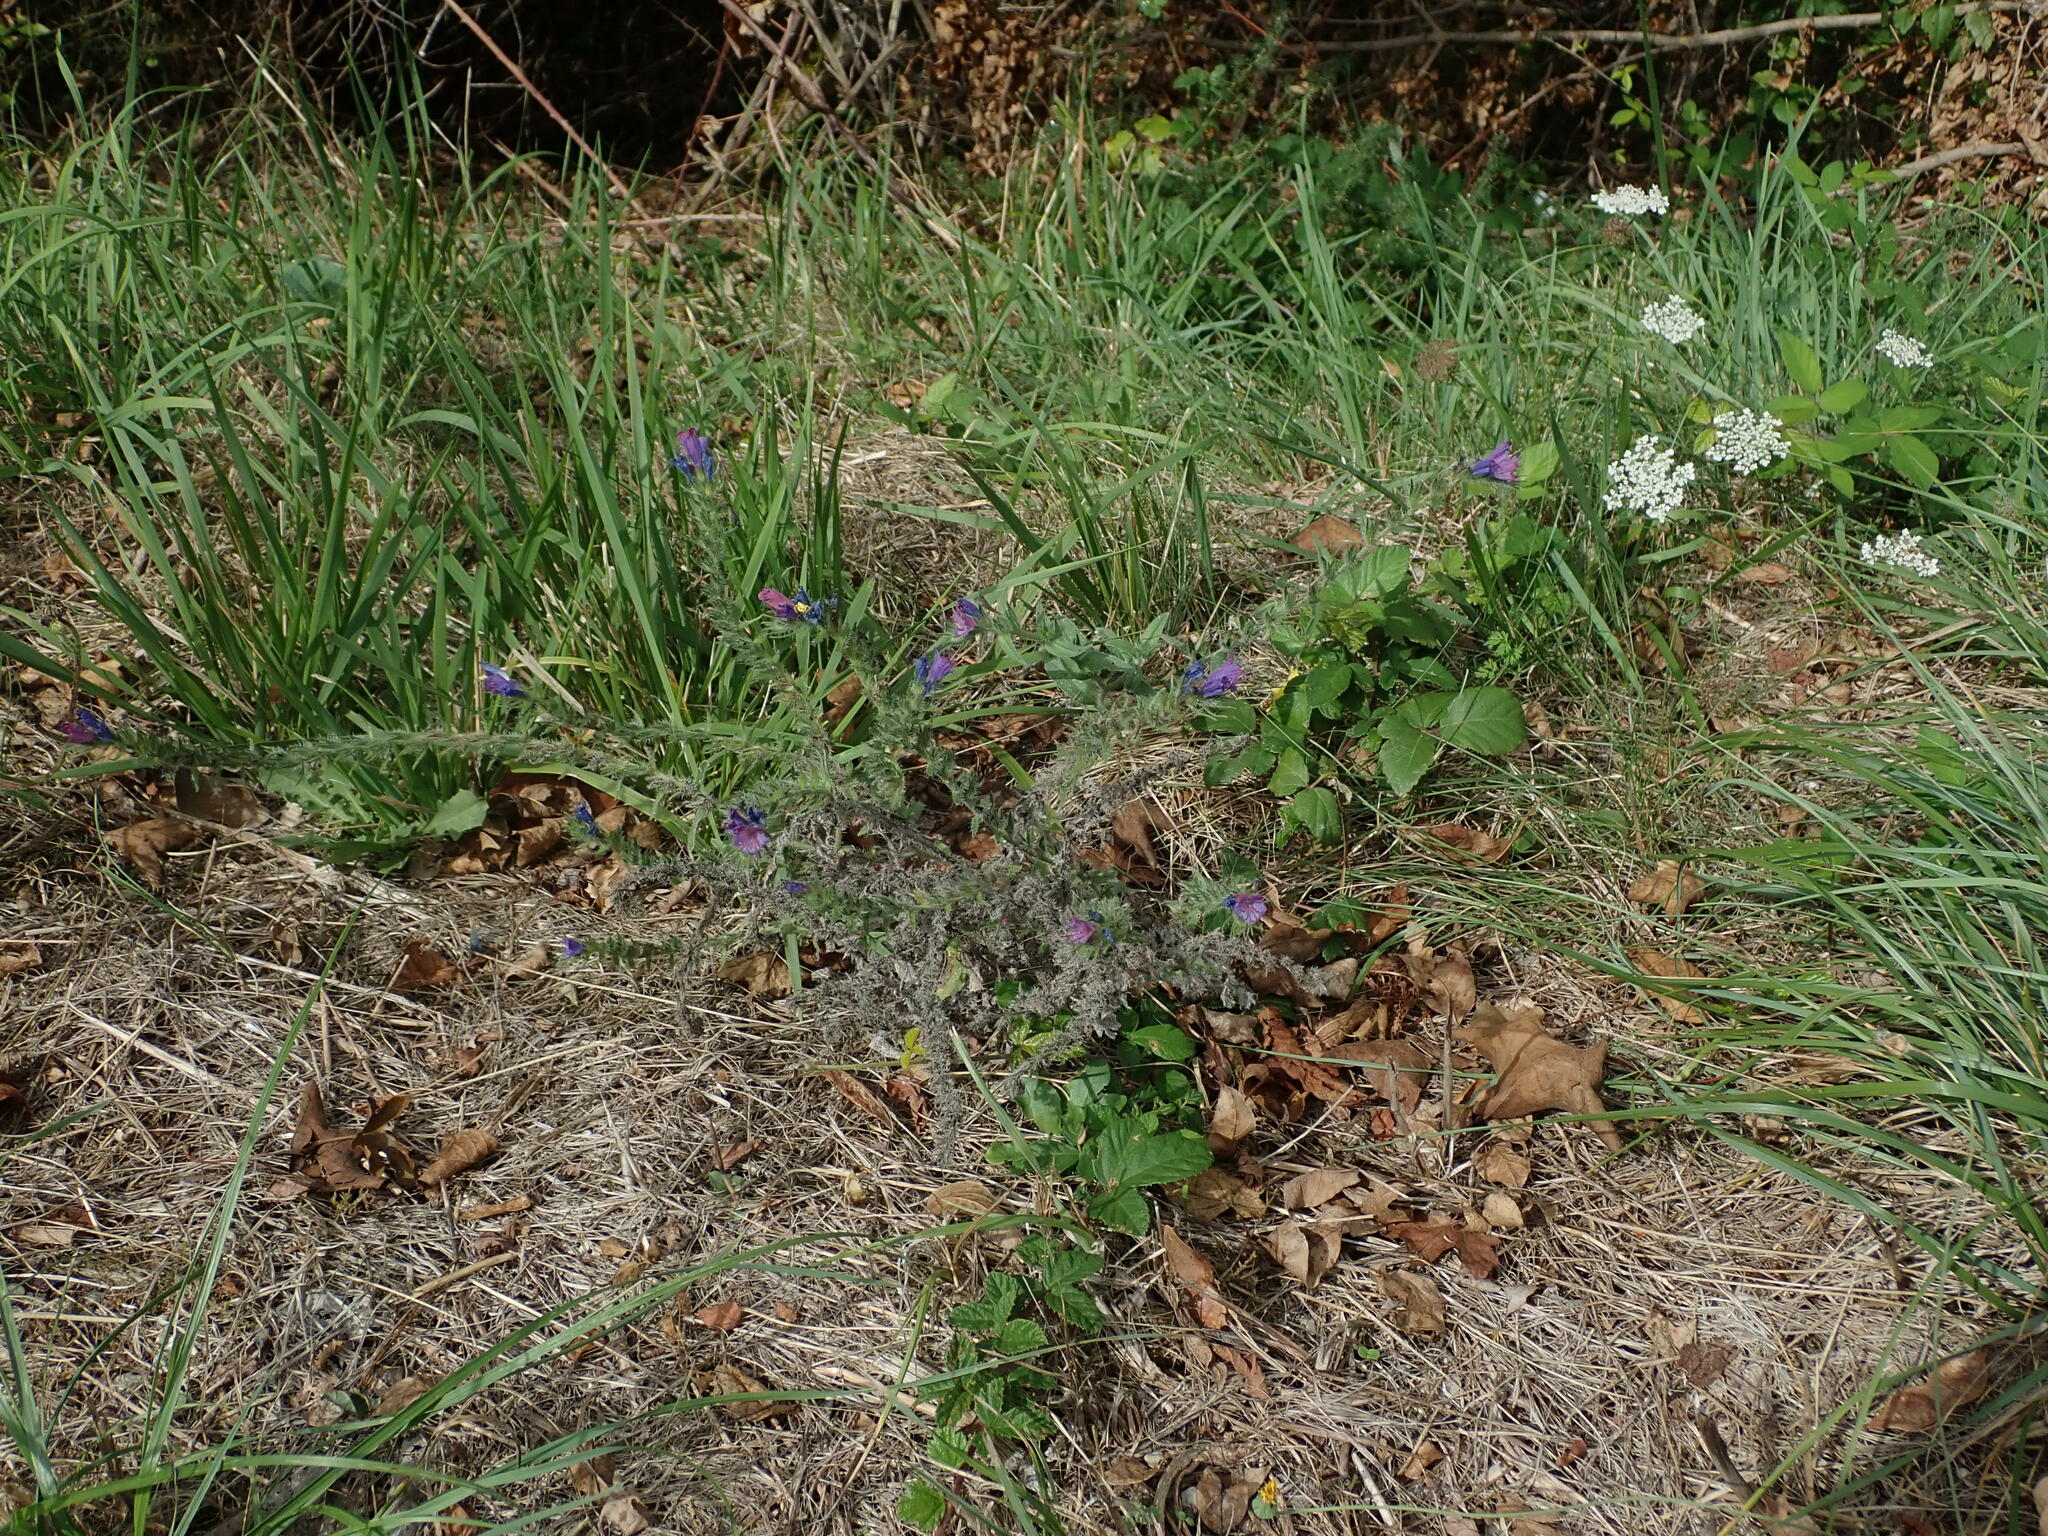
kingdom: Plantae
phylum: Tracheophyta
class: Magnoliopsida
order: Boraginales
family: Boraginaceae
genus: Echium
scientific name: Echium vulgare
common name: Common viper's bugloss
